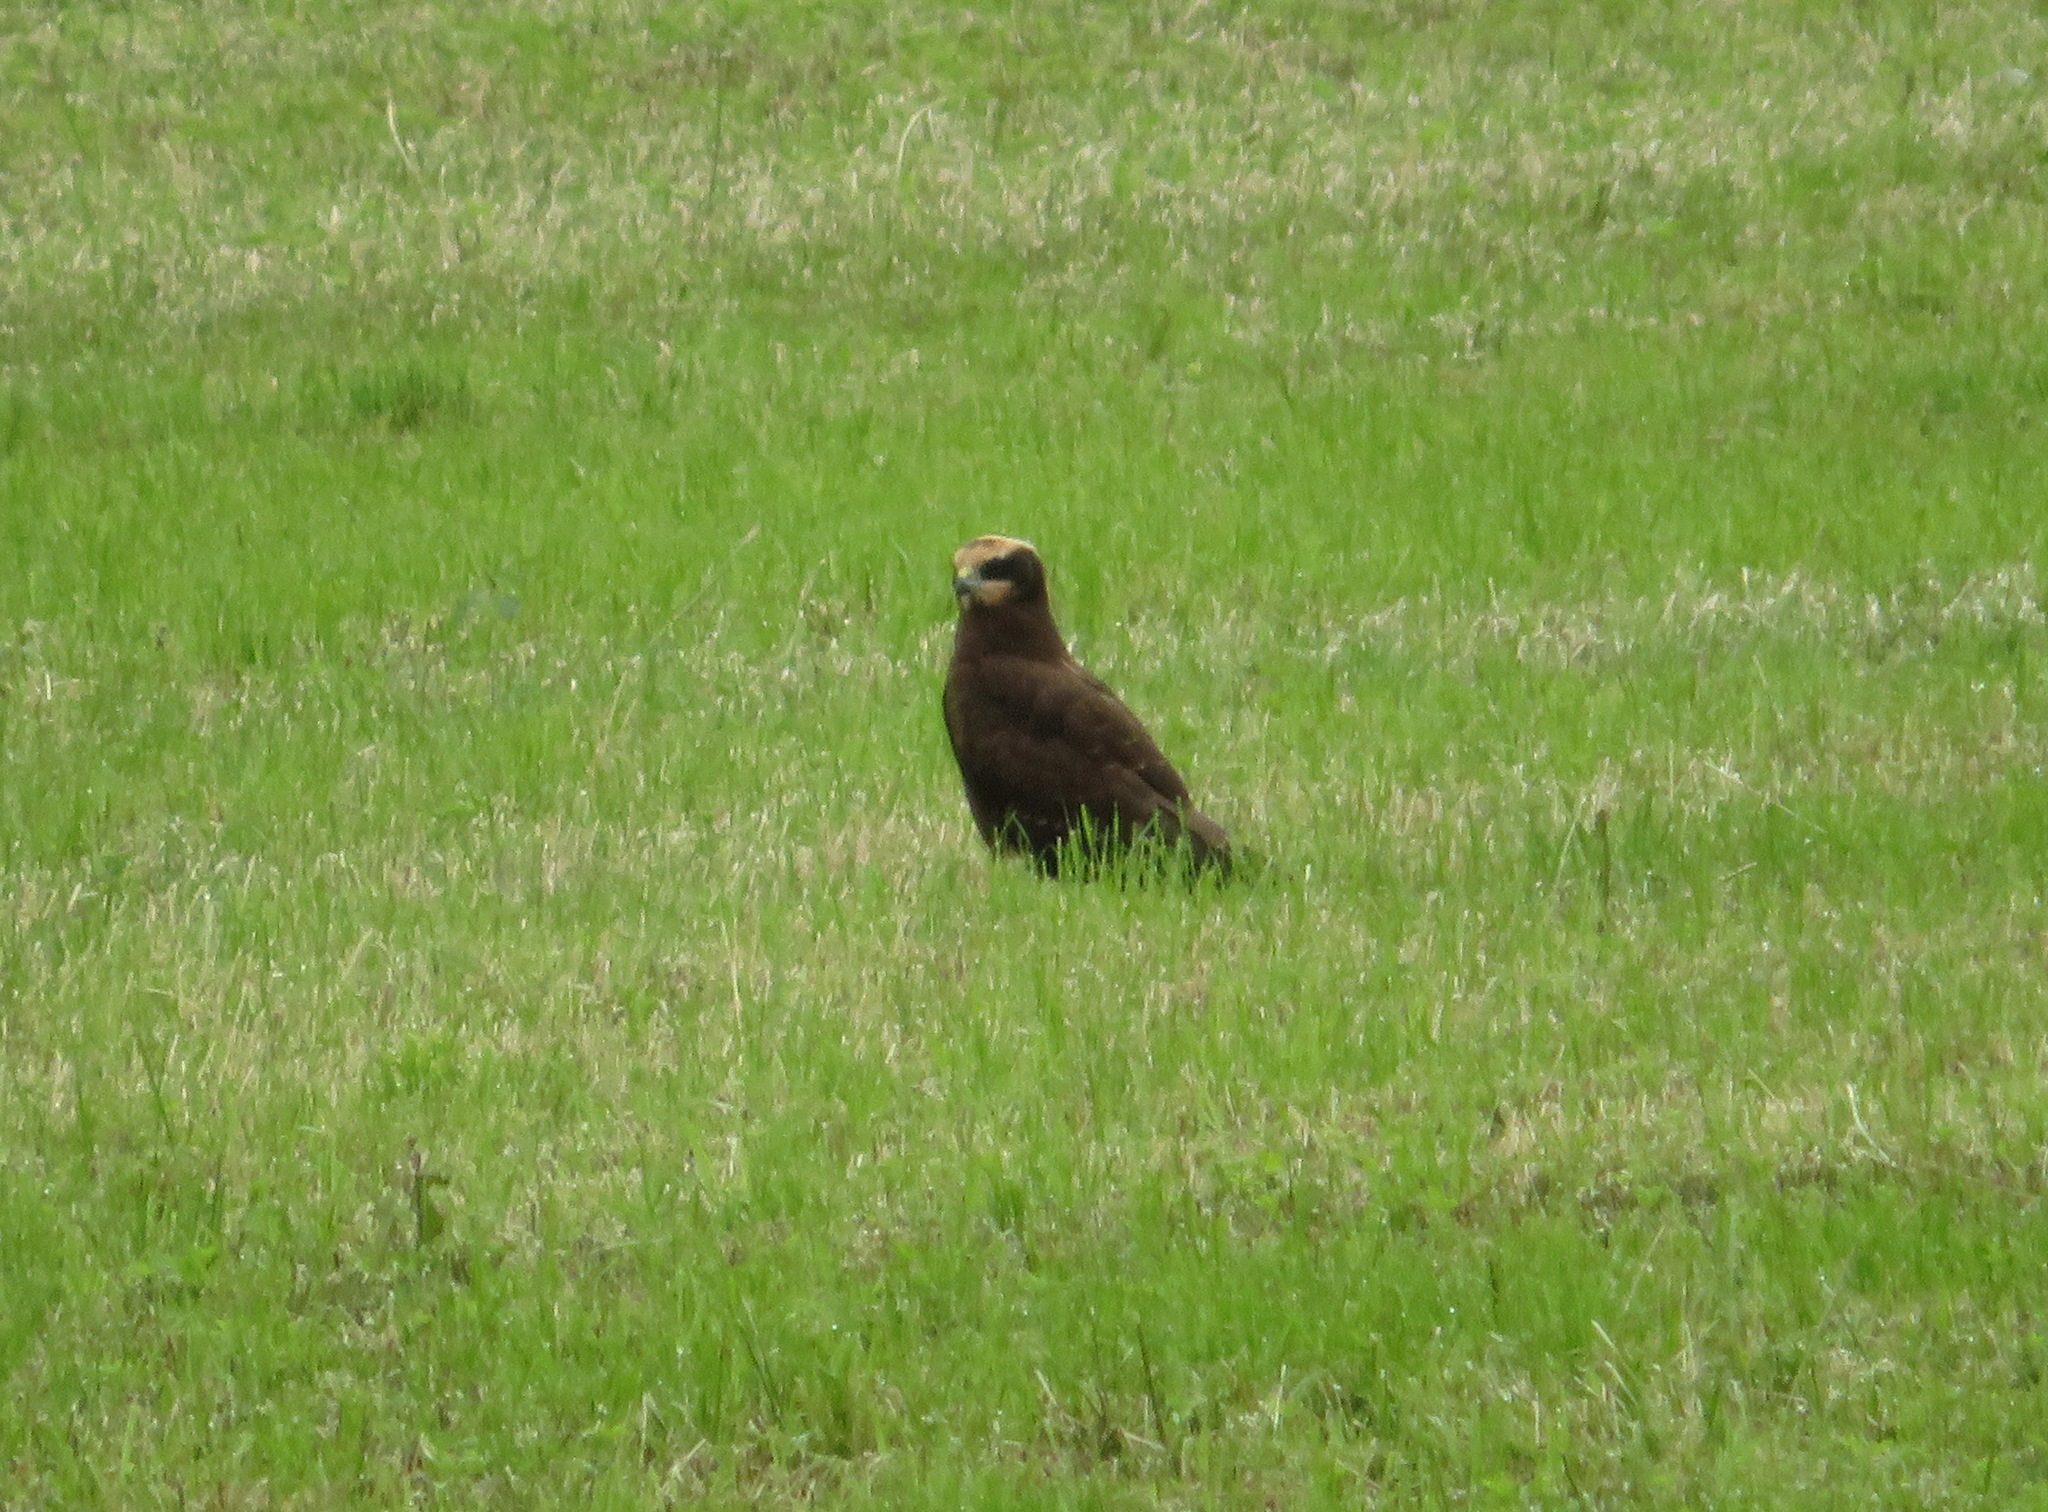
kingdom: Animalia
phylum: Chordata
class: Aves
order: Accipitriformes
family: Accipitridae
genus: Circus
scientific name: Circus aeruginosus
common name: Western marsh harrier
